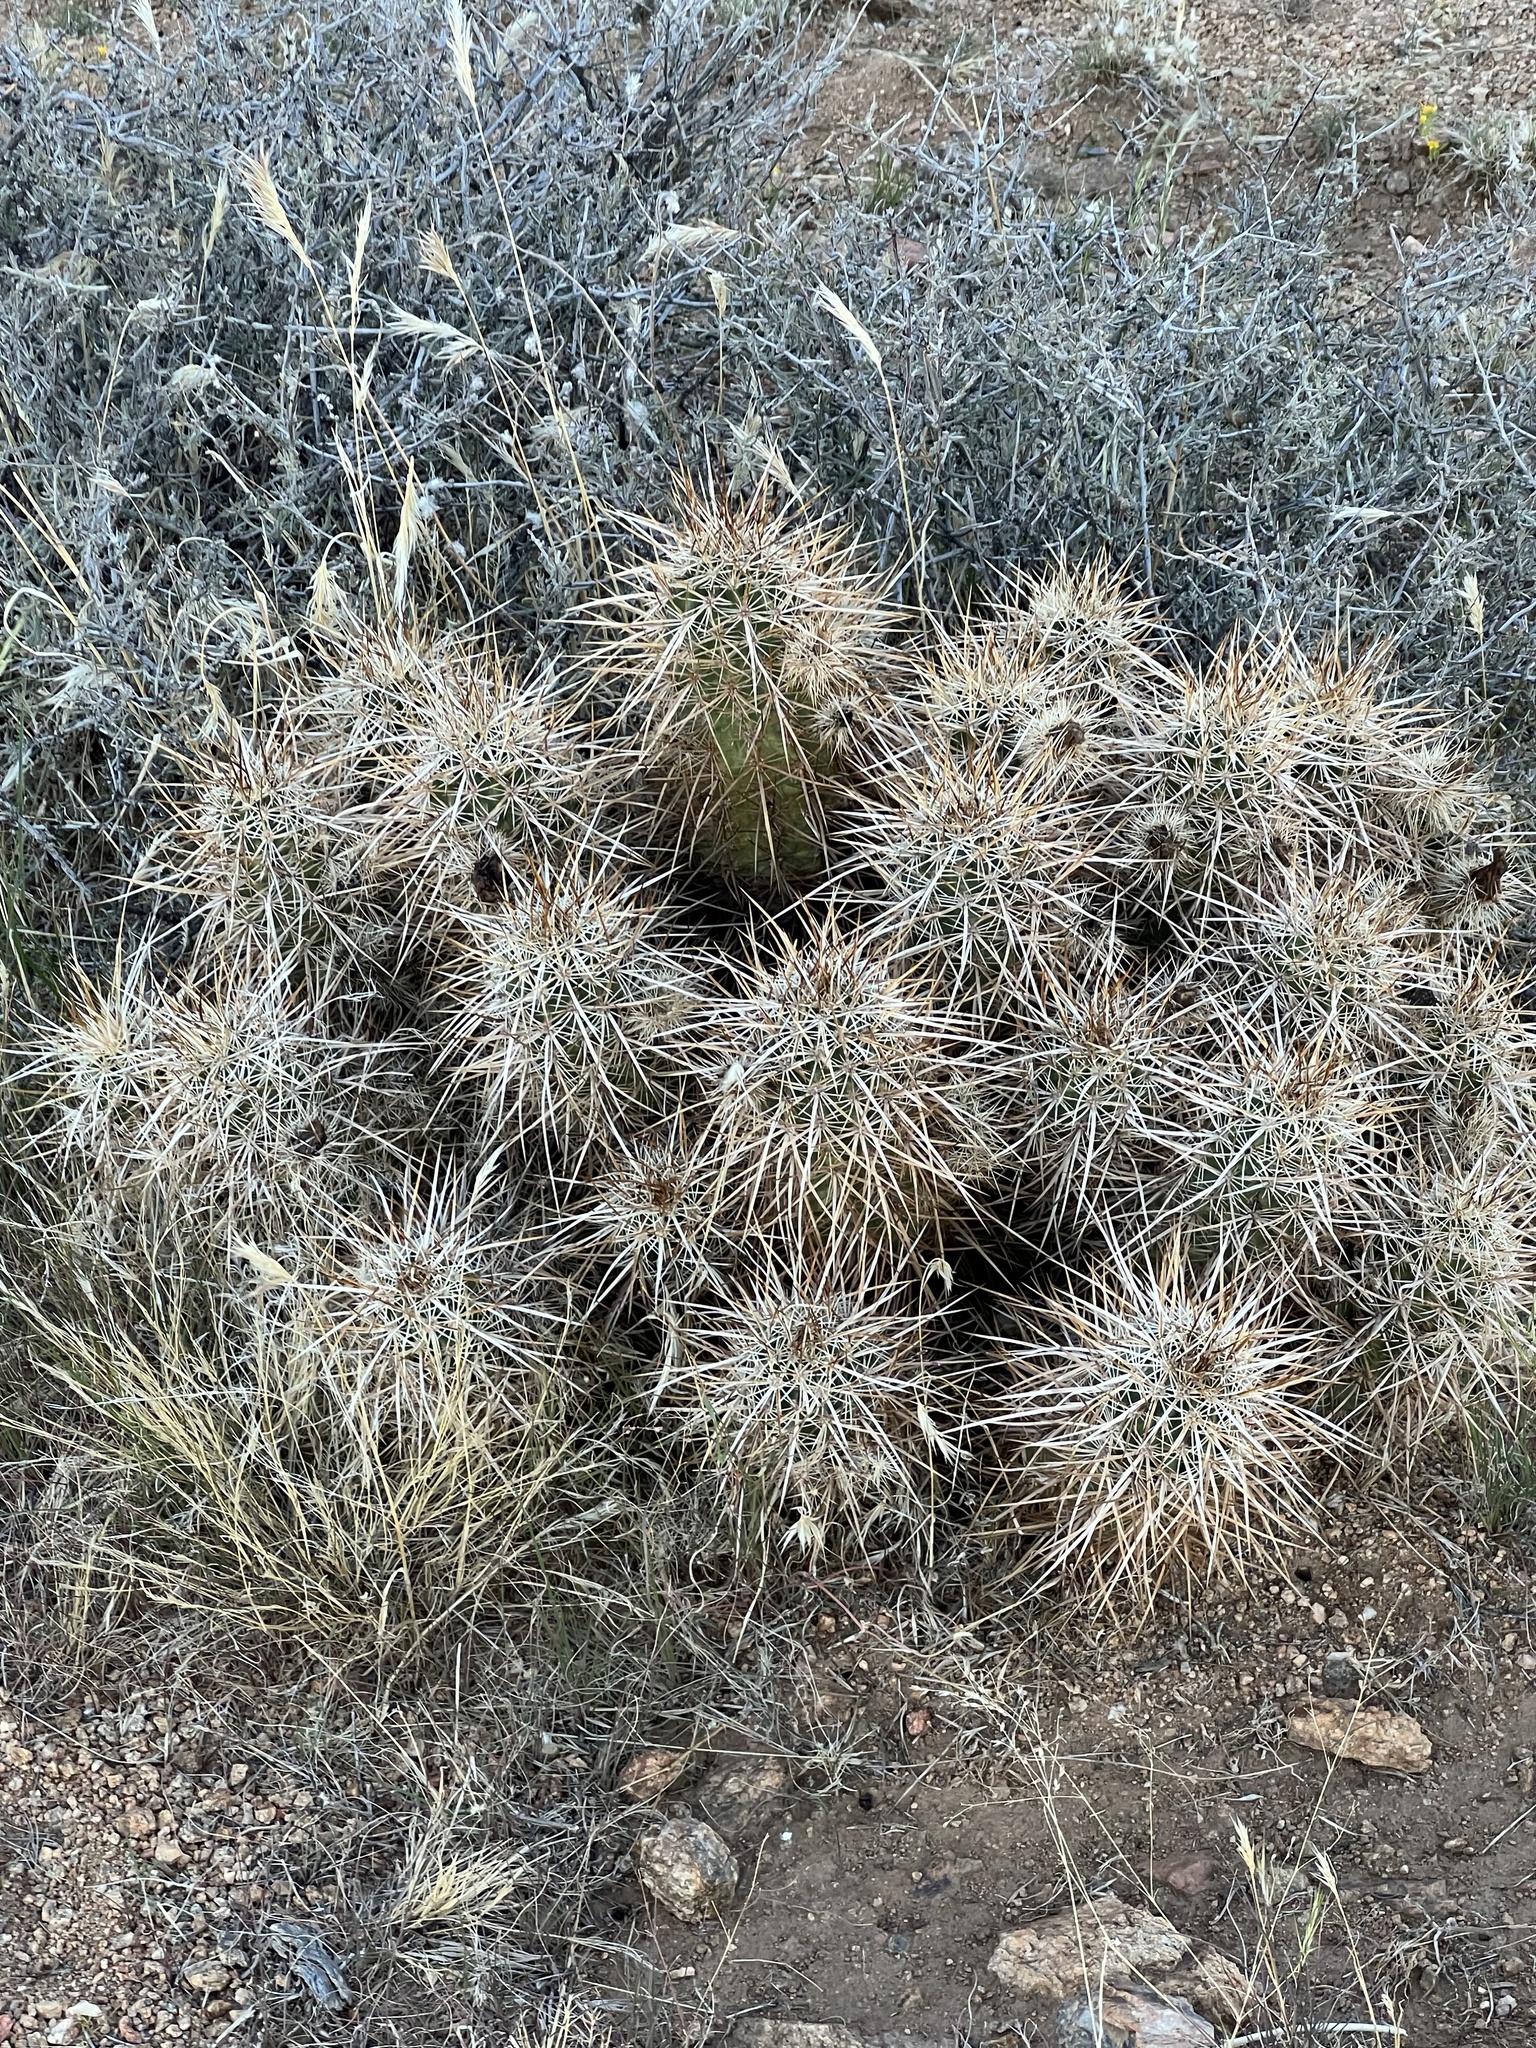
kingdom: Plantae
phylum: Tracheophyta
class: Magnoliopsida
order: Caryophyllales
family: Cactaceae
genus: Echinocereus
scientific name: Echinocereus engelmannii
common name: Engelmann's hedgehog cactus
